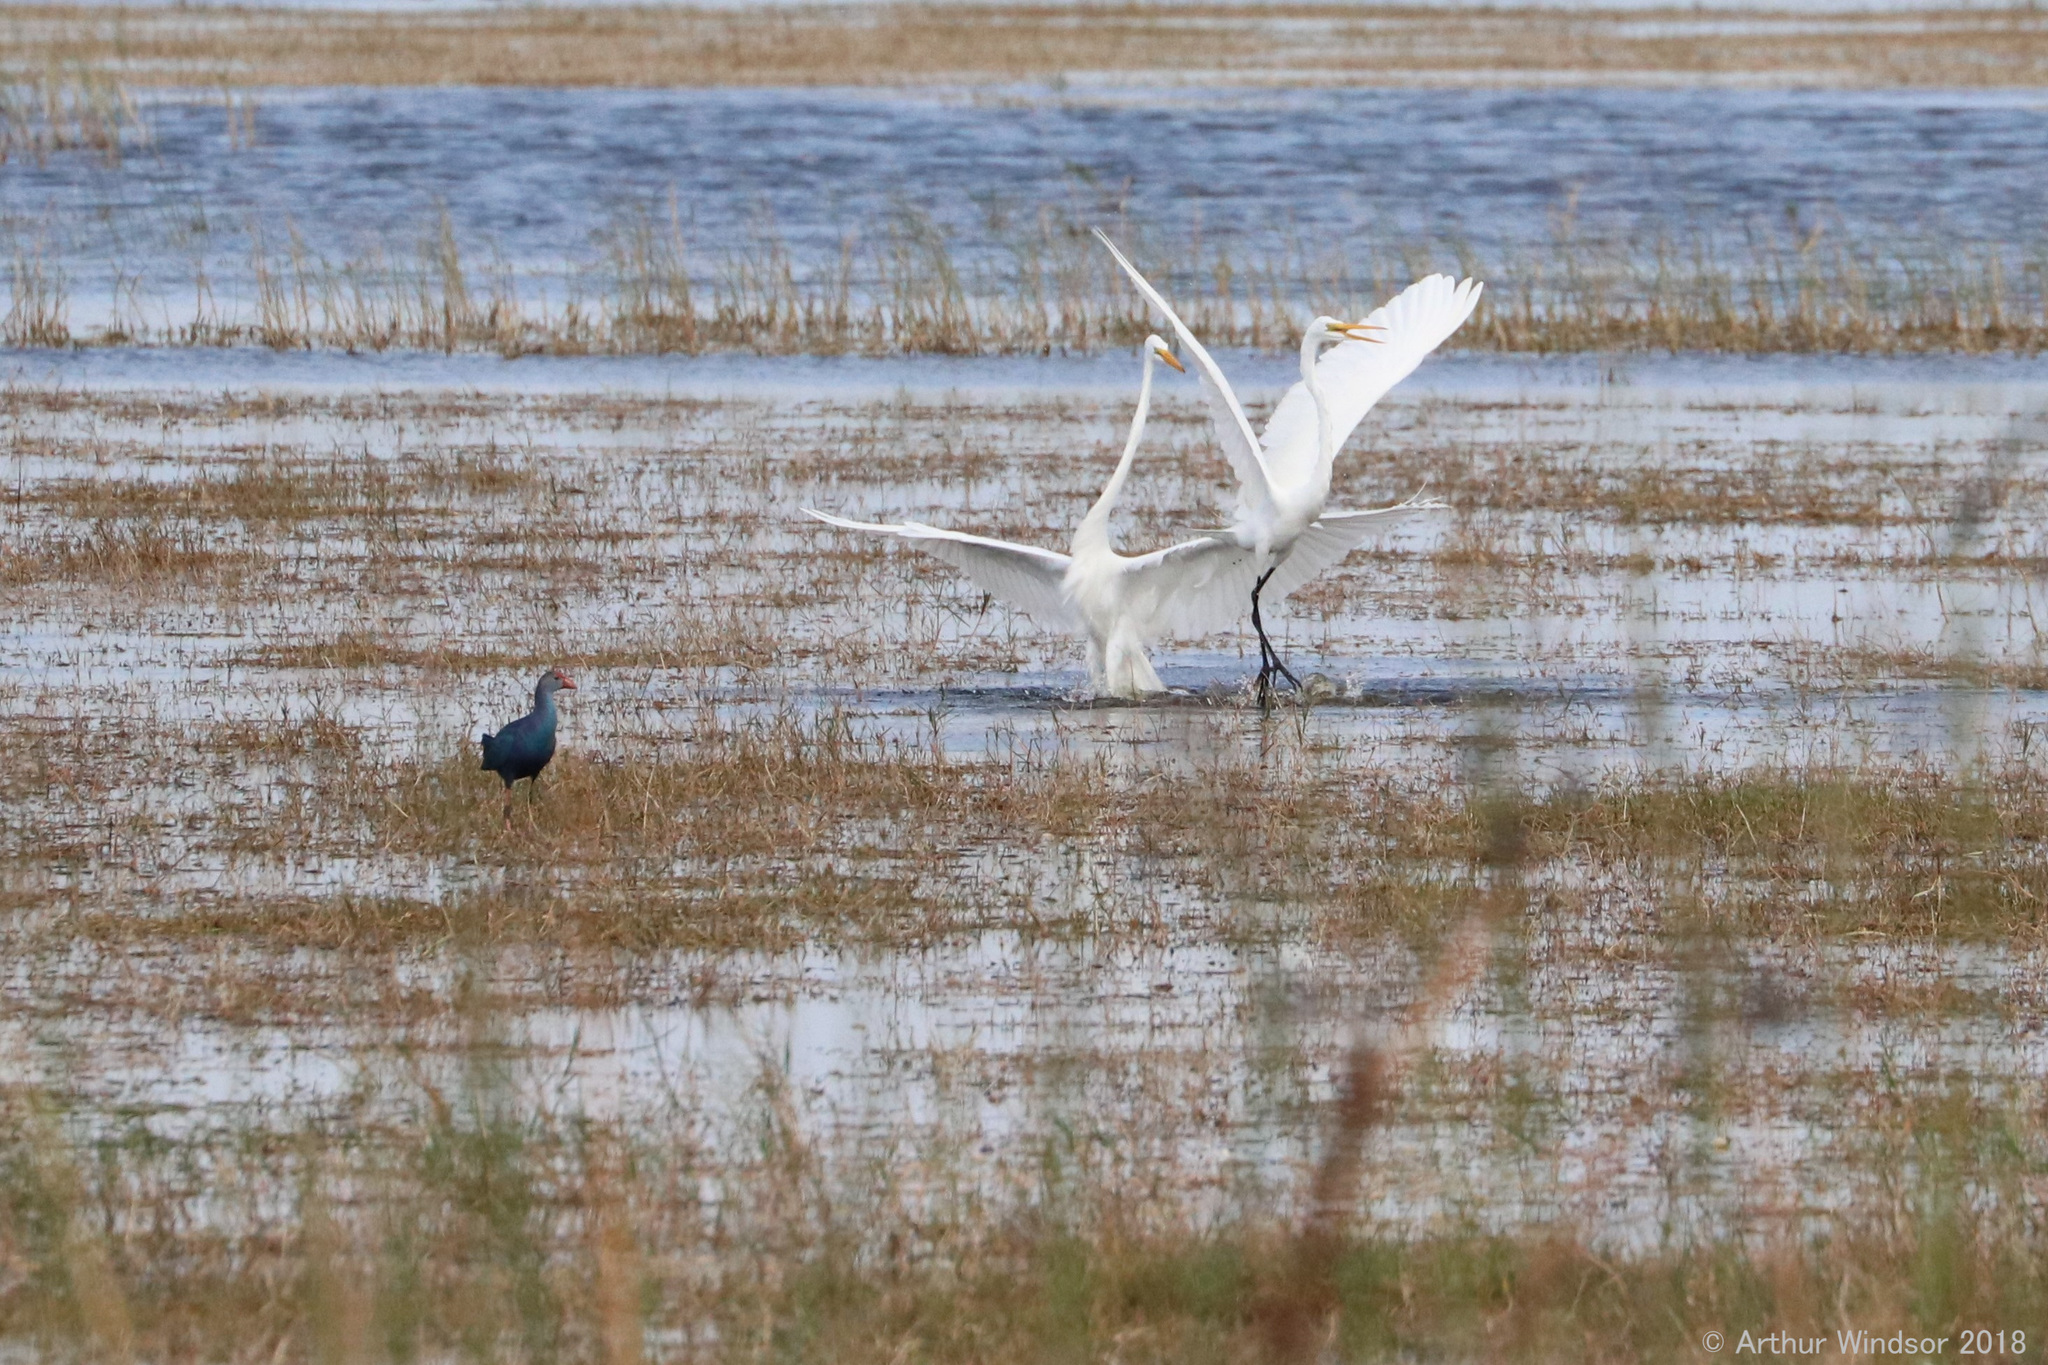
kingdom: Animalia
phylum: Chordata
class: Aves
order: Pelecaniformes
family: Ardeidae
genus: Ardea
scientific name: Ardea alba
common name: Great egret
